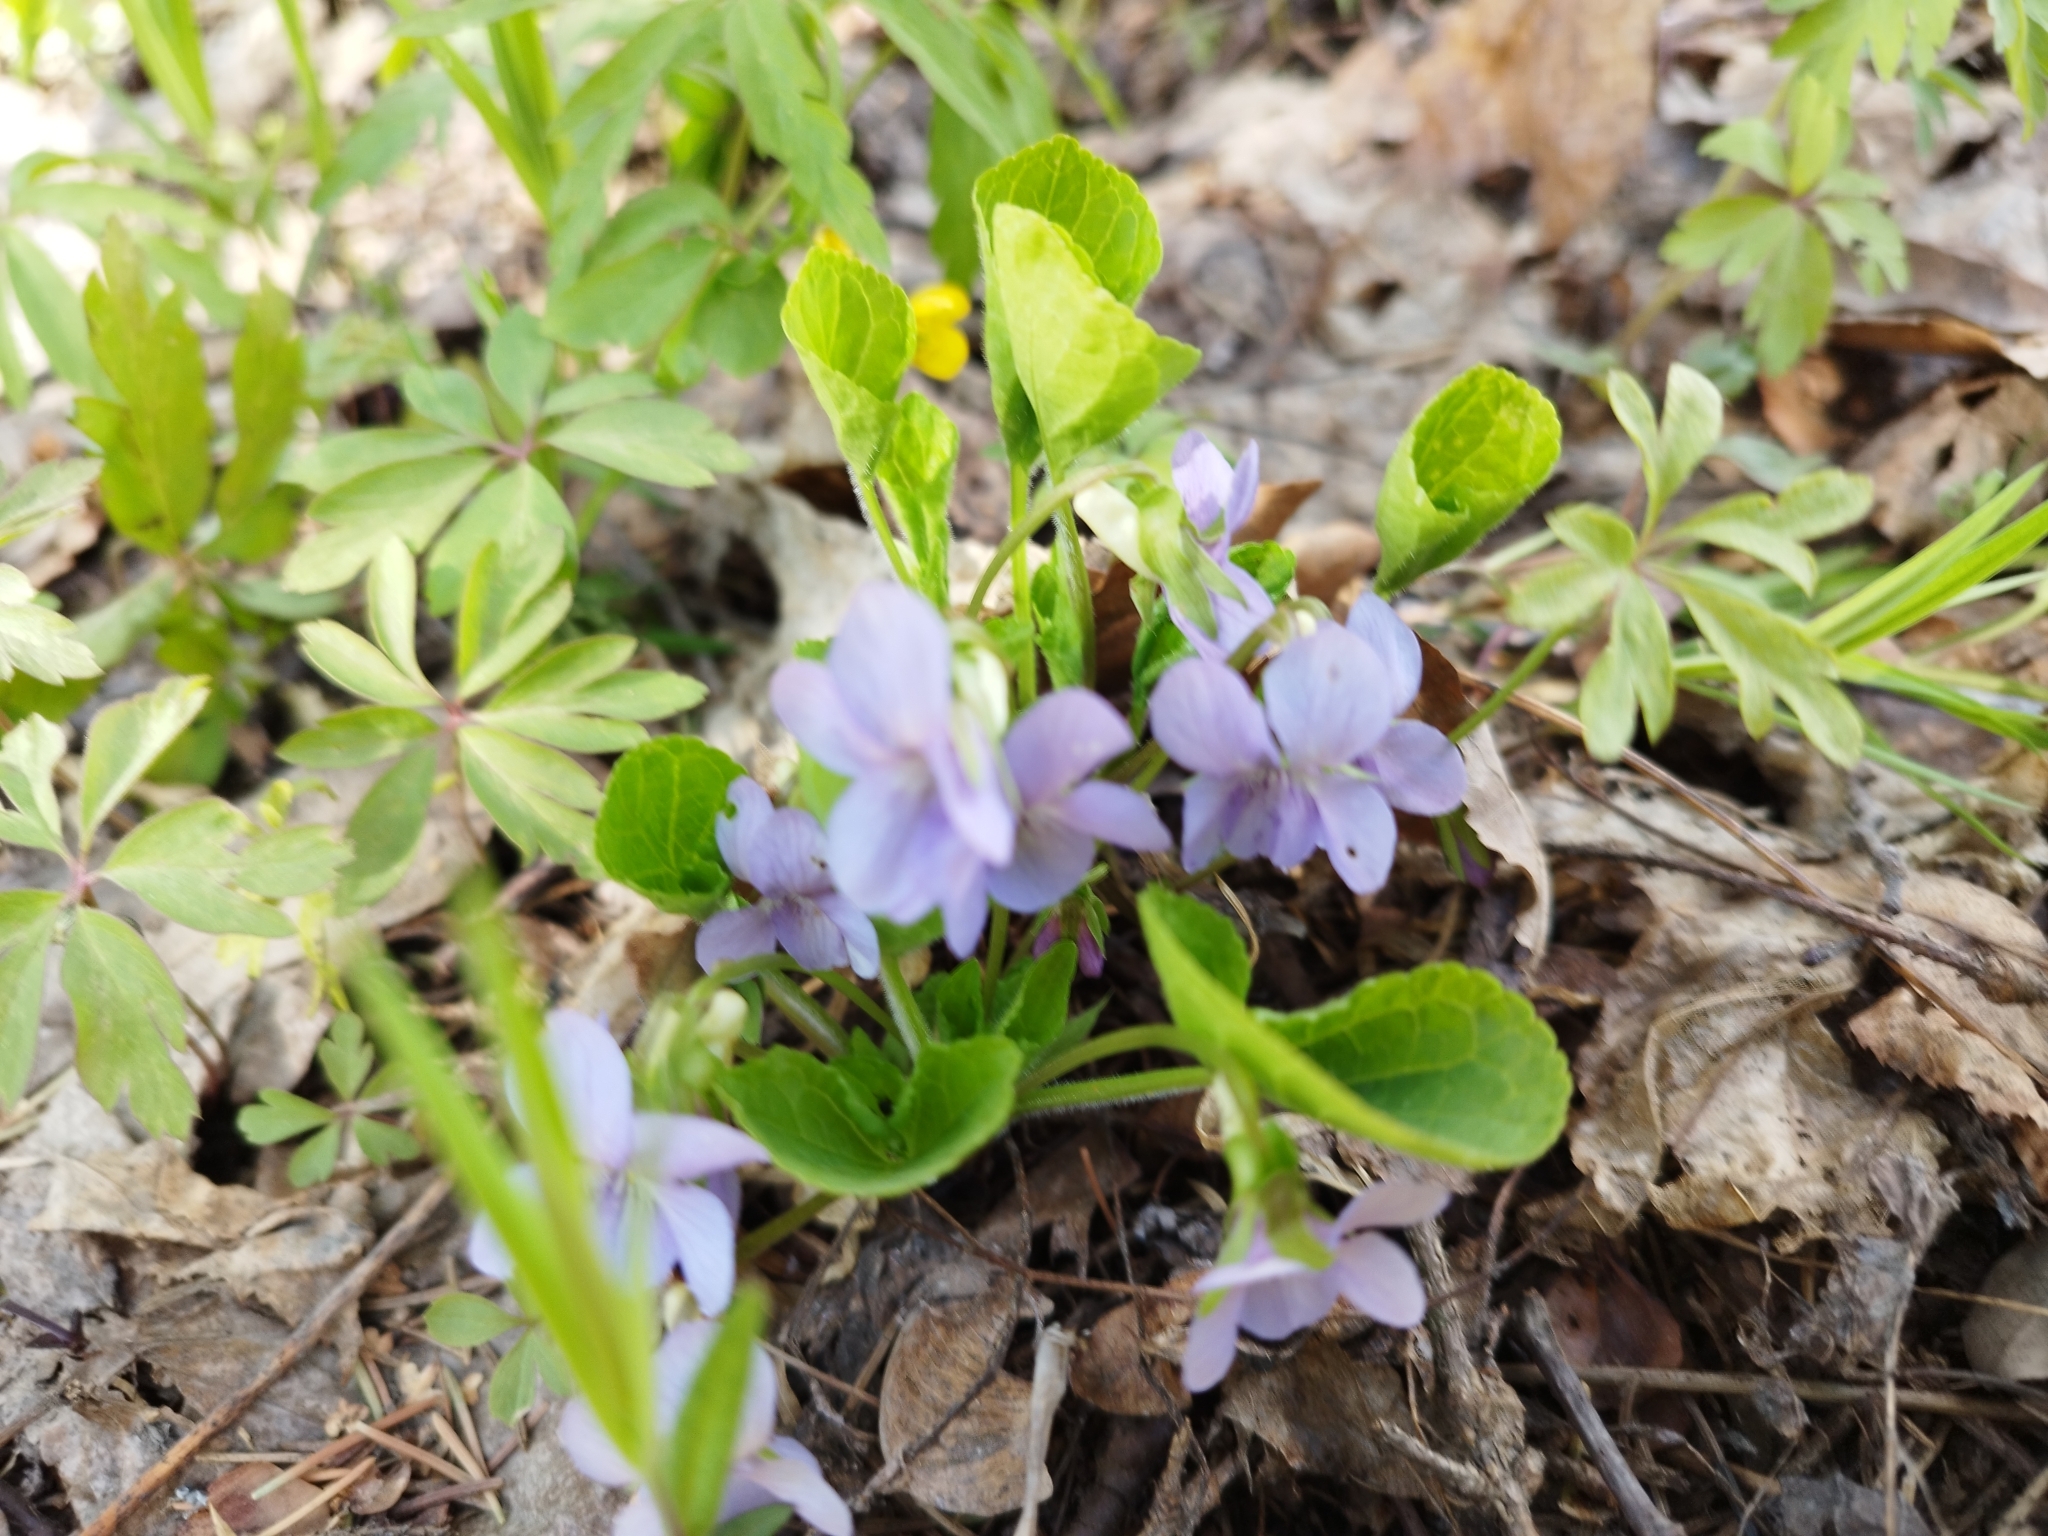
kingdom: Plantae
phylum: Tracheophyta
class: Magnoliopsida
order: Malpighiales
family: Violaceae
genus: Viola
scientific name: Viola mirabilis
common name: Wonder violet
